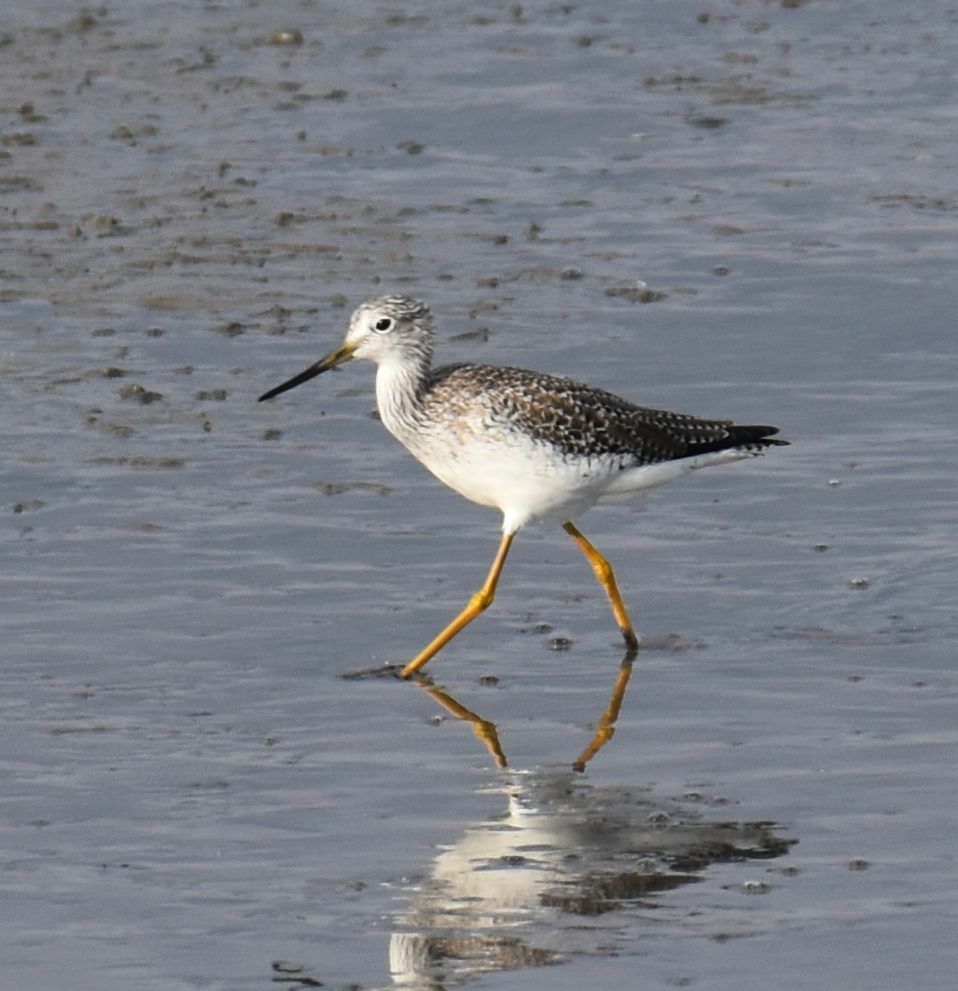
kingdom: Animalia
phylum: Chordata
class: Aves
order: Charadriiformes
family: Scolopacidae
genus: Tringa
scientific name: Tringa melanoleuca
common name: Greater yellowlegs
